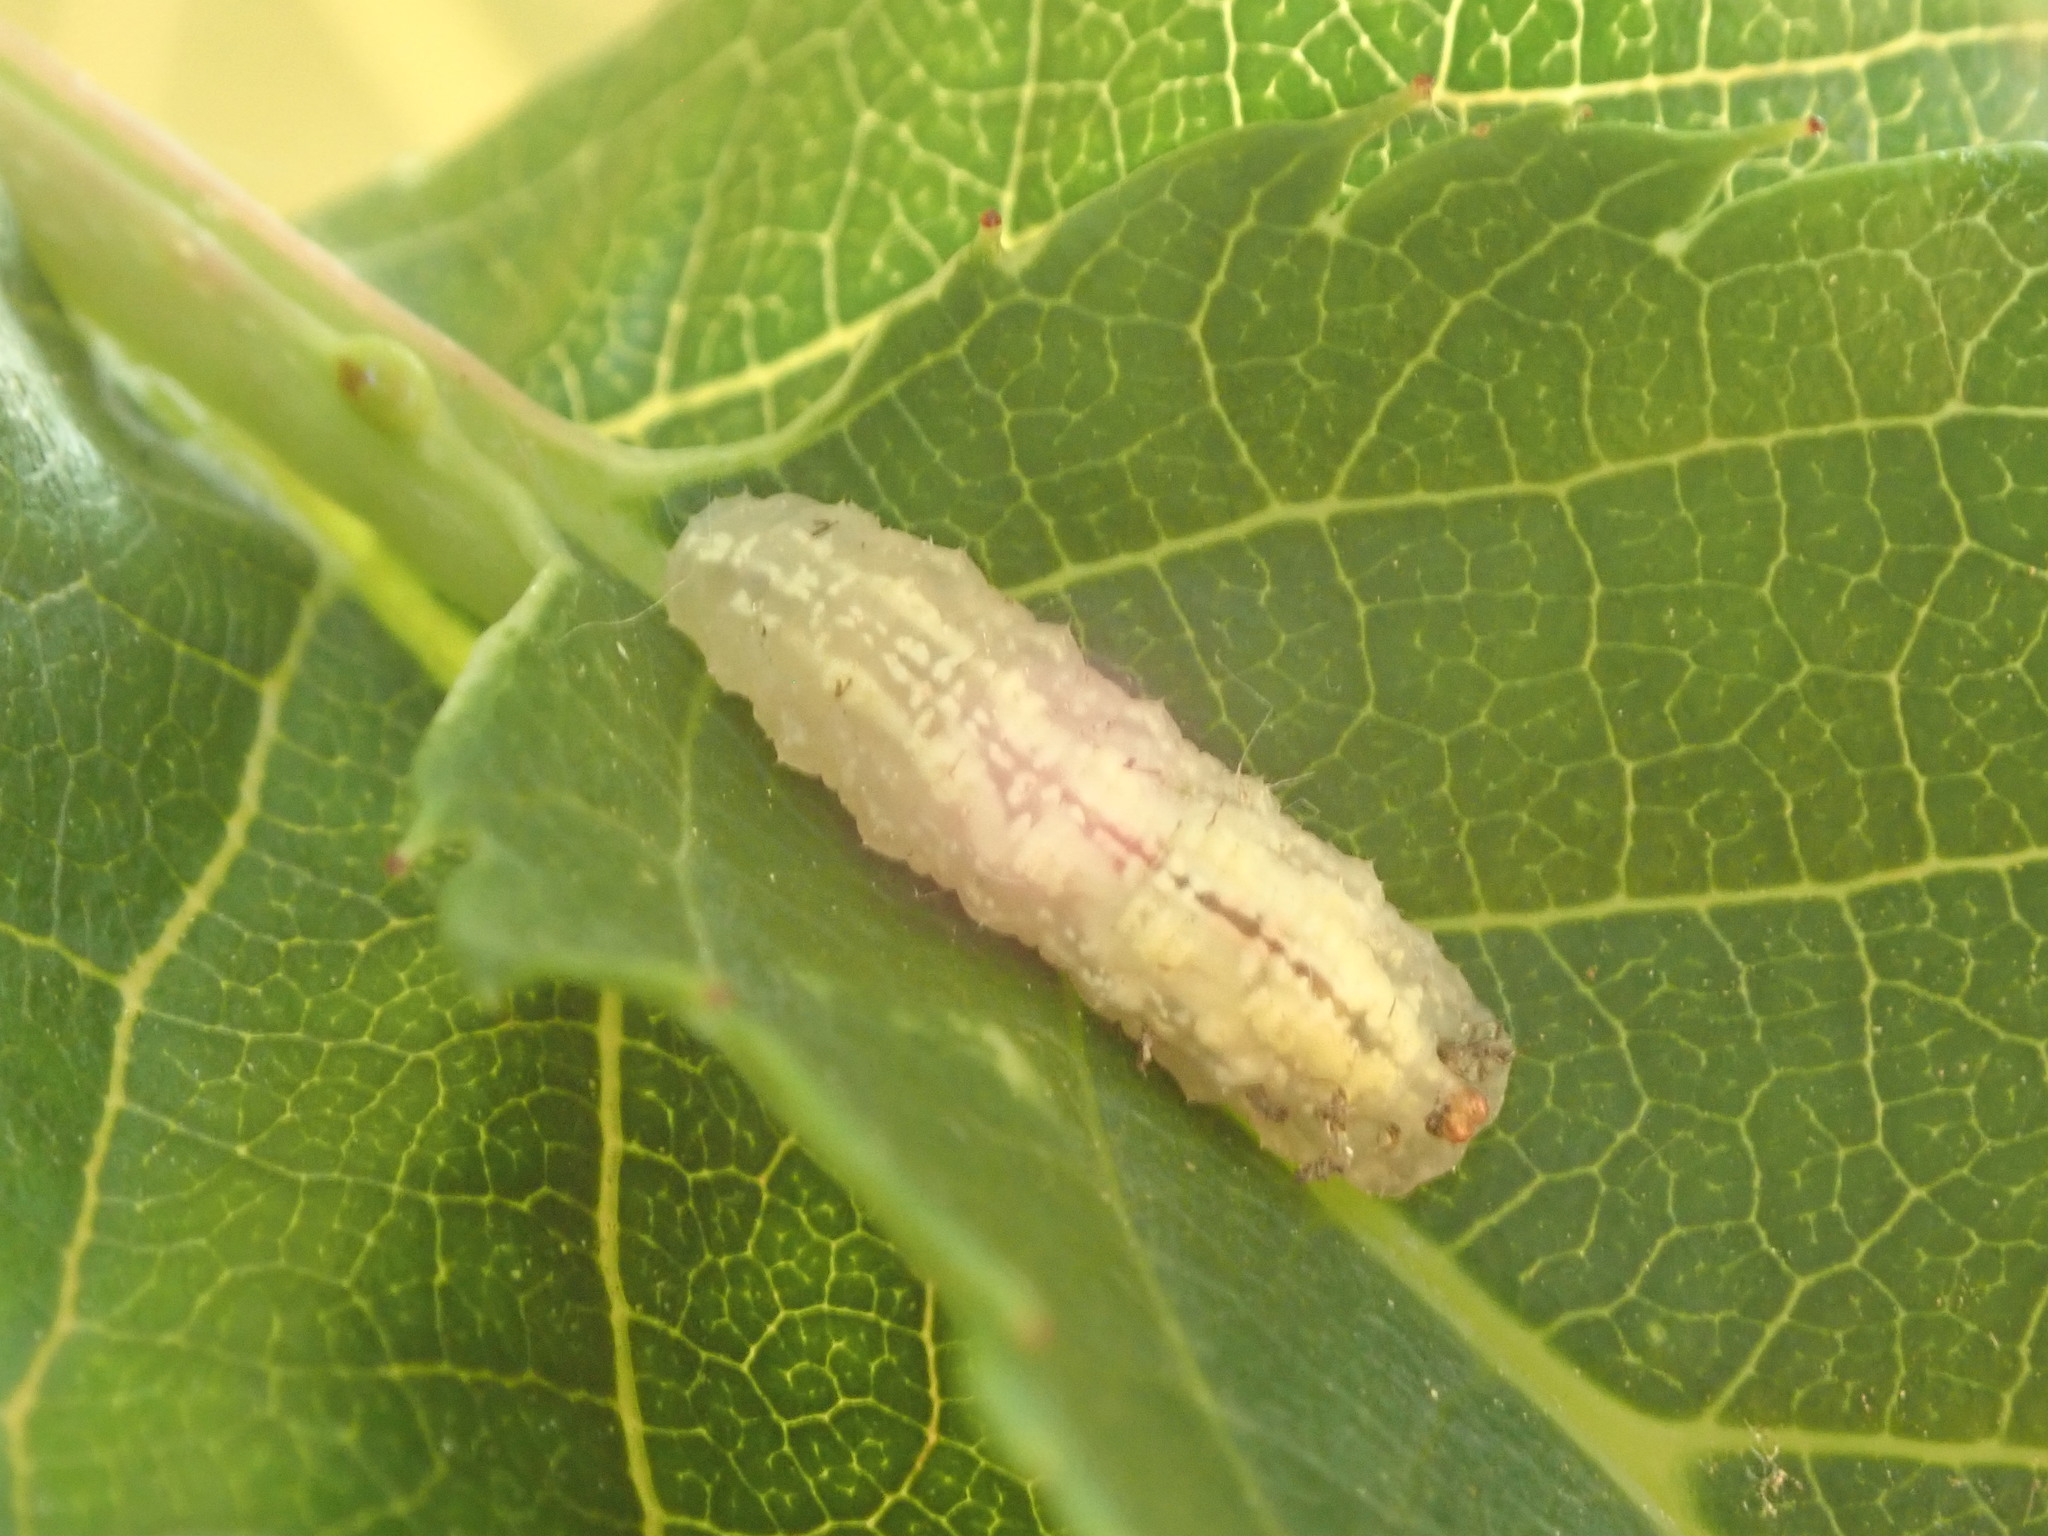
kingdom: Animalia
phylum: Arthropoda
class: Insecta
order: Diptera
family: Syrphidae
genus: Syrphus
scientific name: Syrphus
